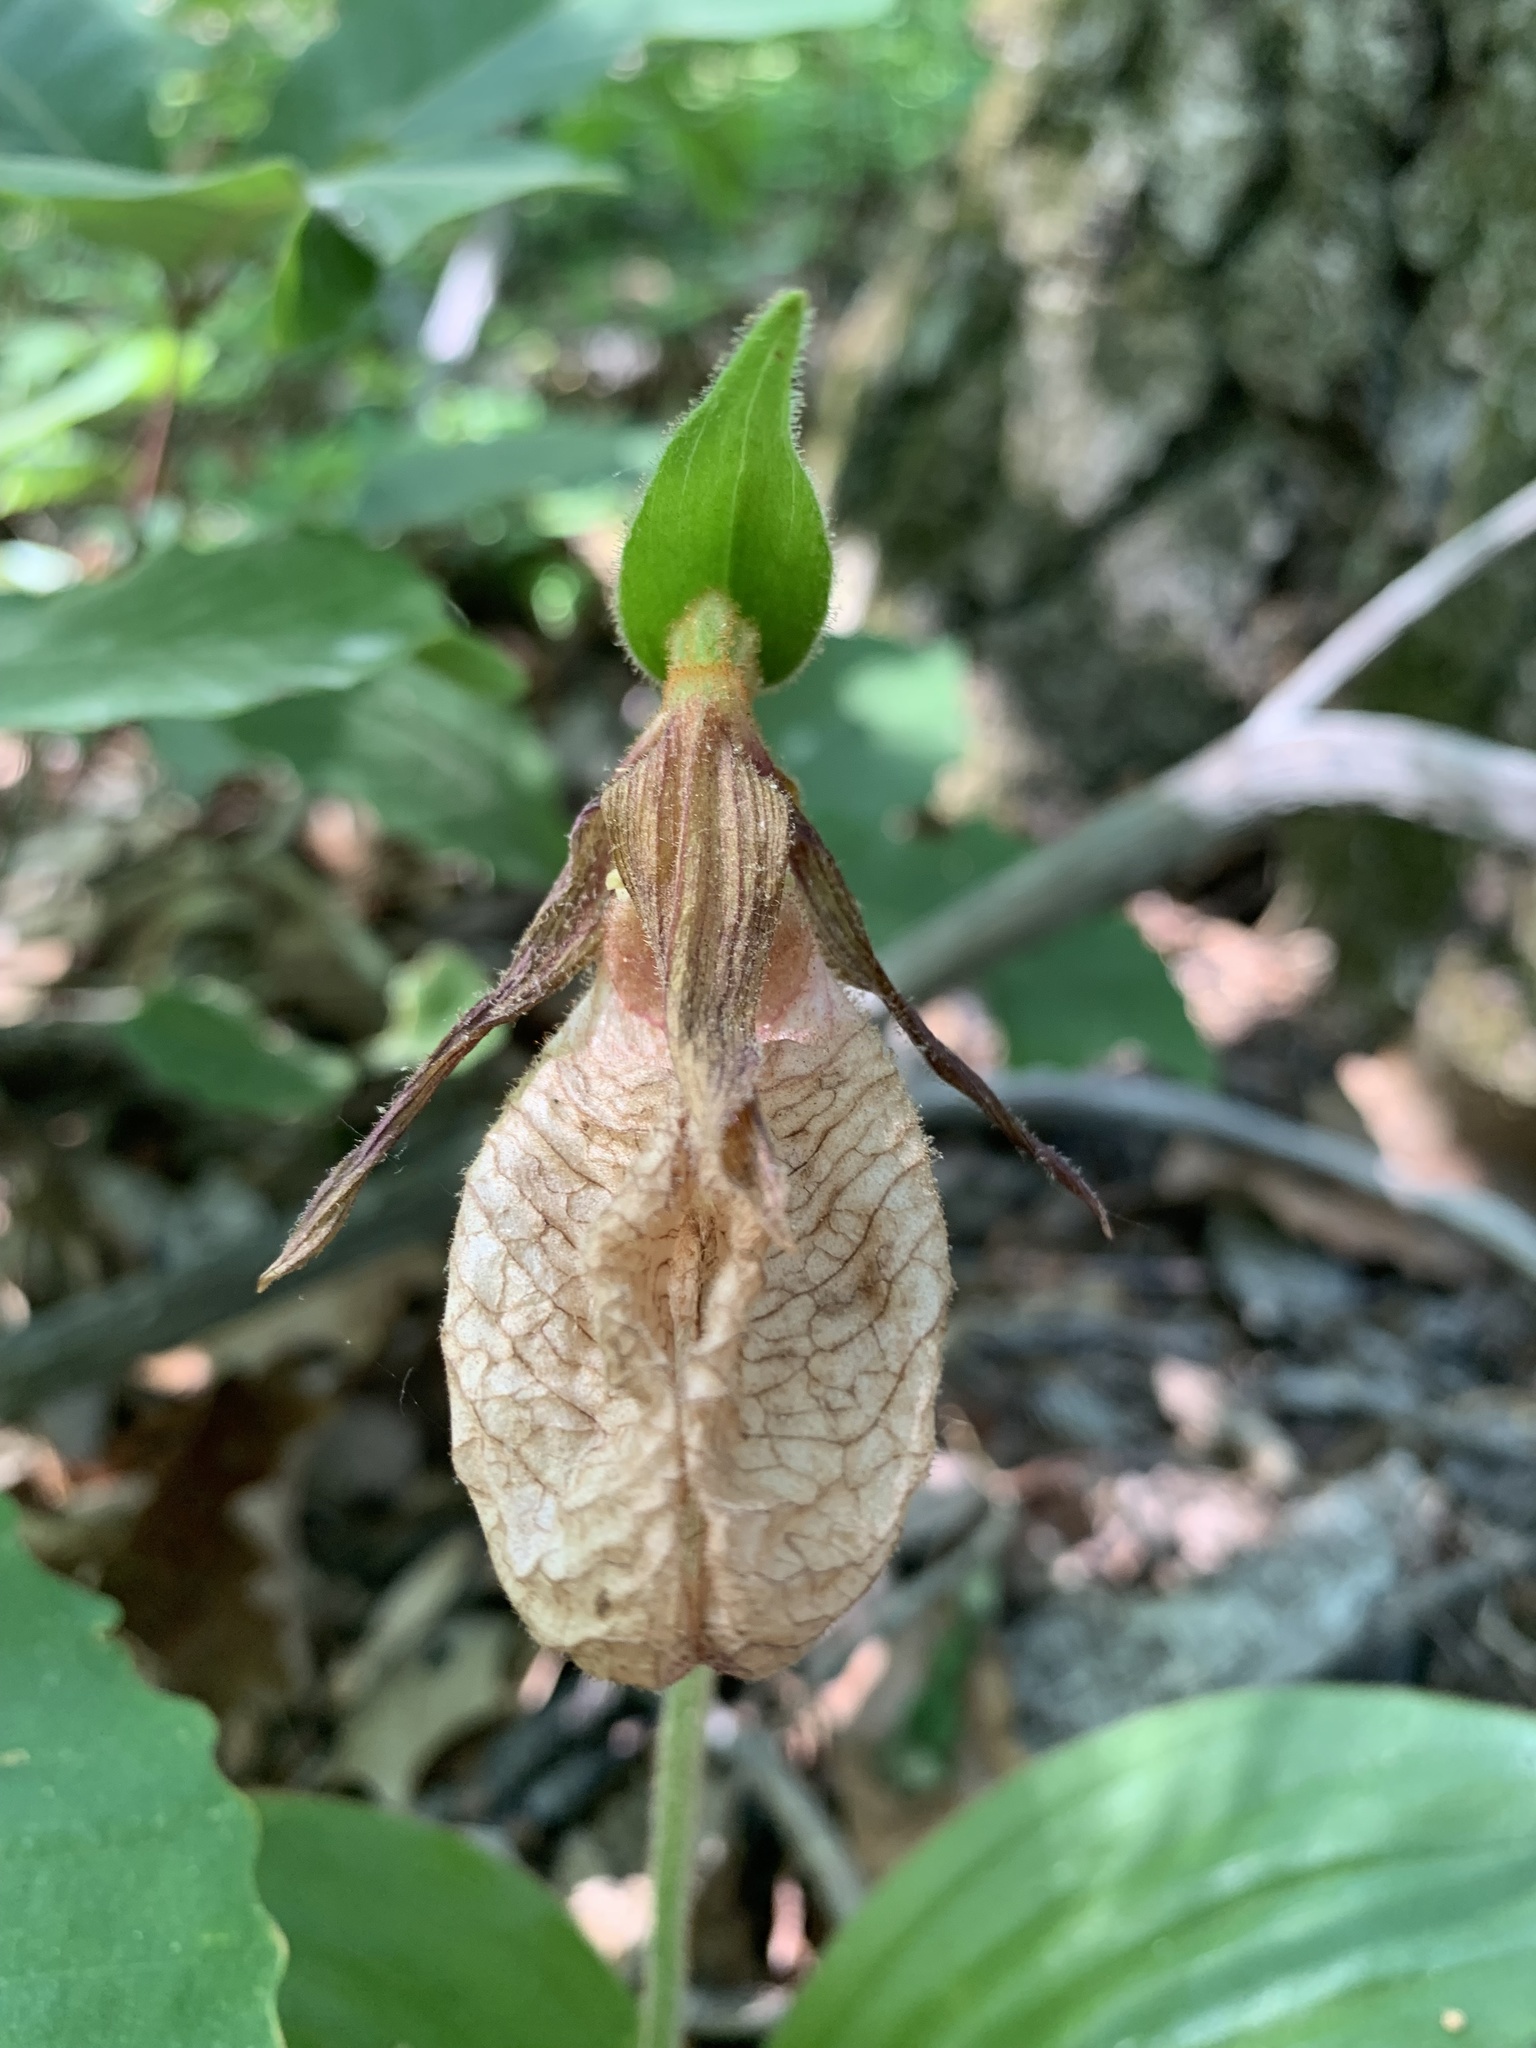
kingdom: Plantae
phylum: Tracheophyta
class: Liliopsida
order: Asparagales
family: Orchidaceae
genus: Cypripedium
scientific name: Cypripedium acaule
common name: Pink lady's-slipper
